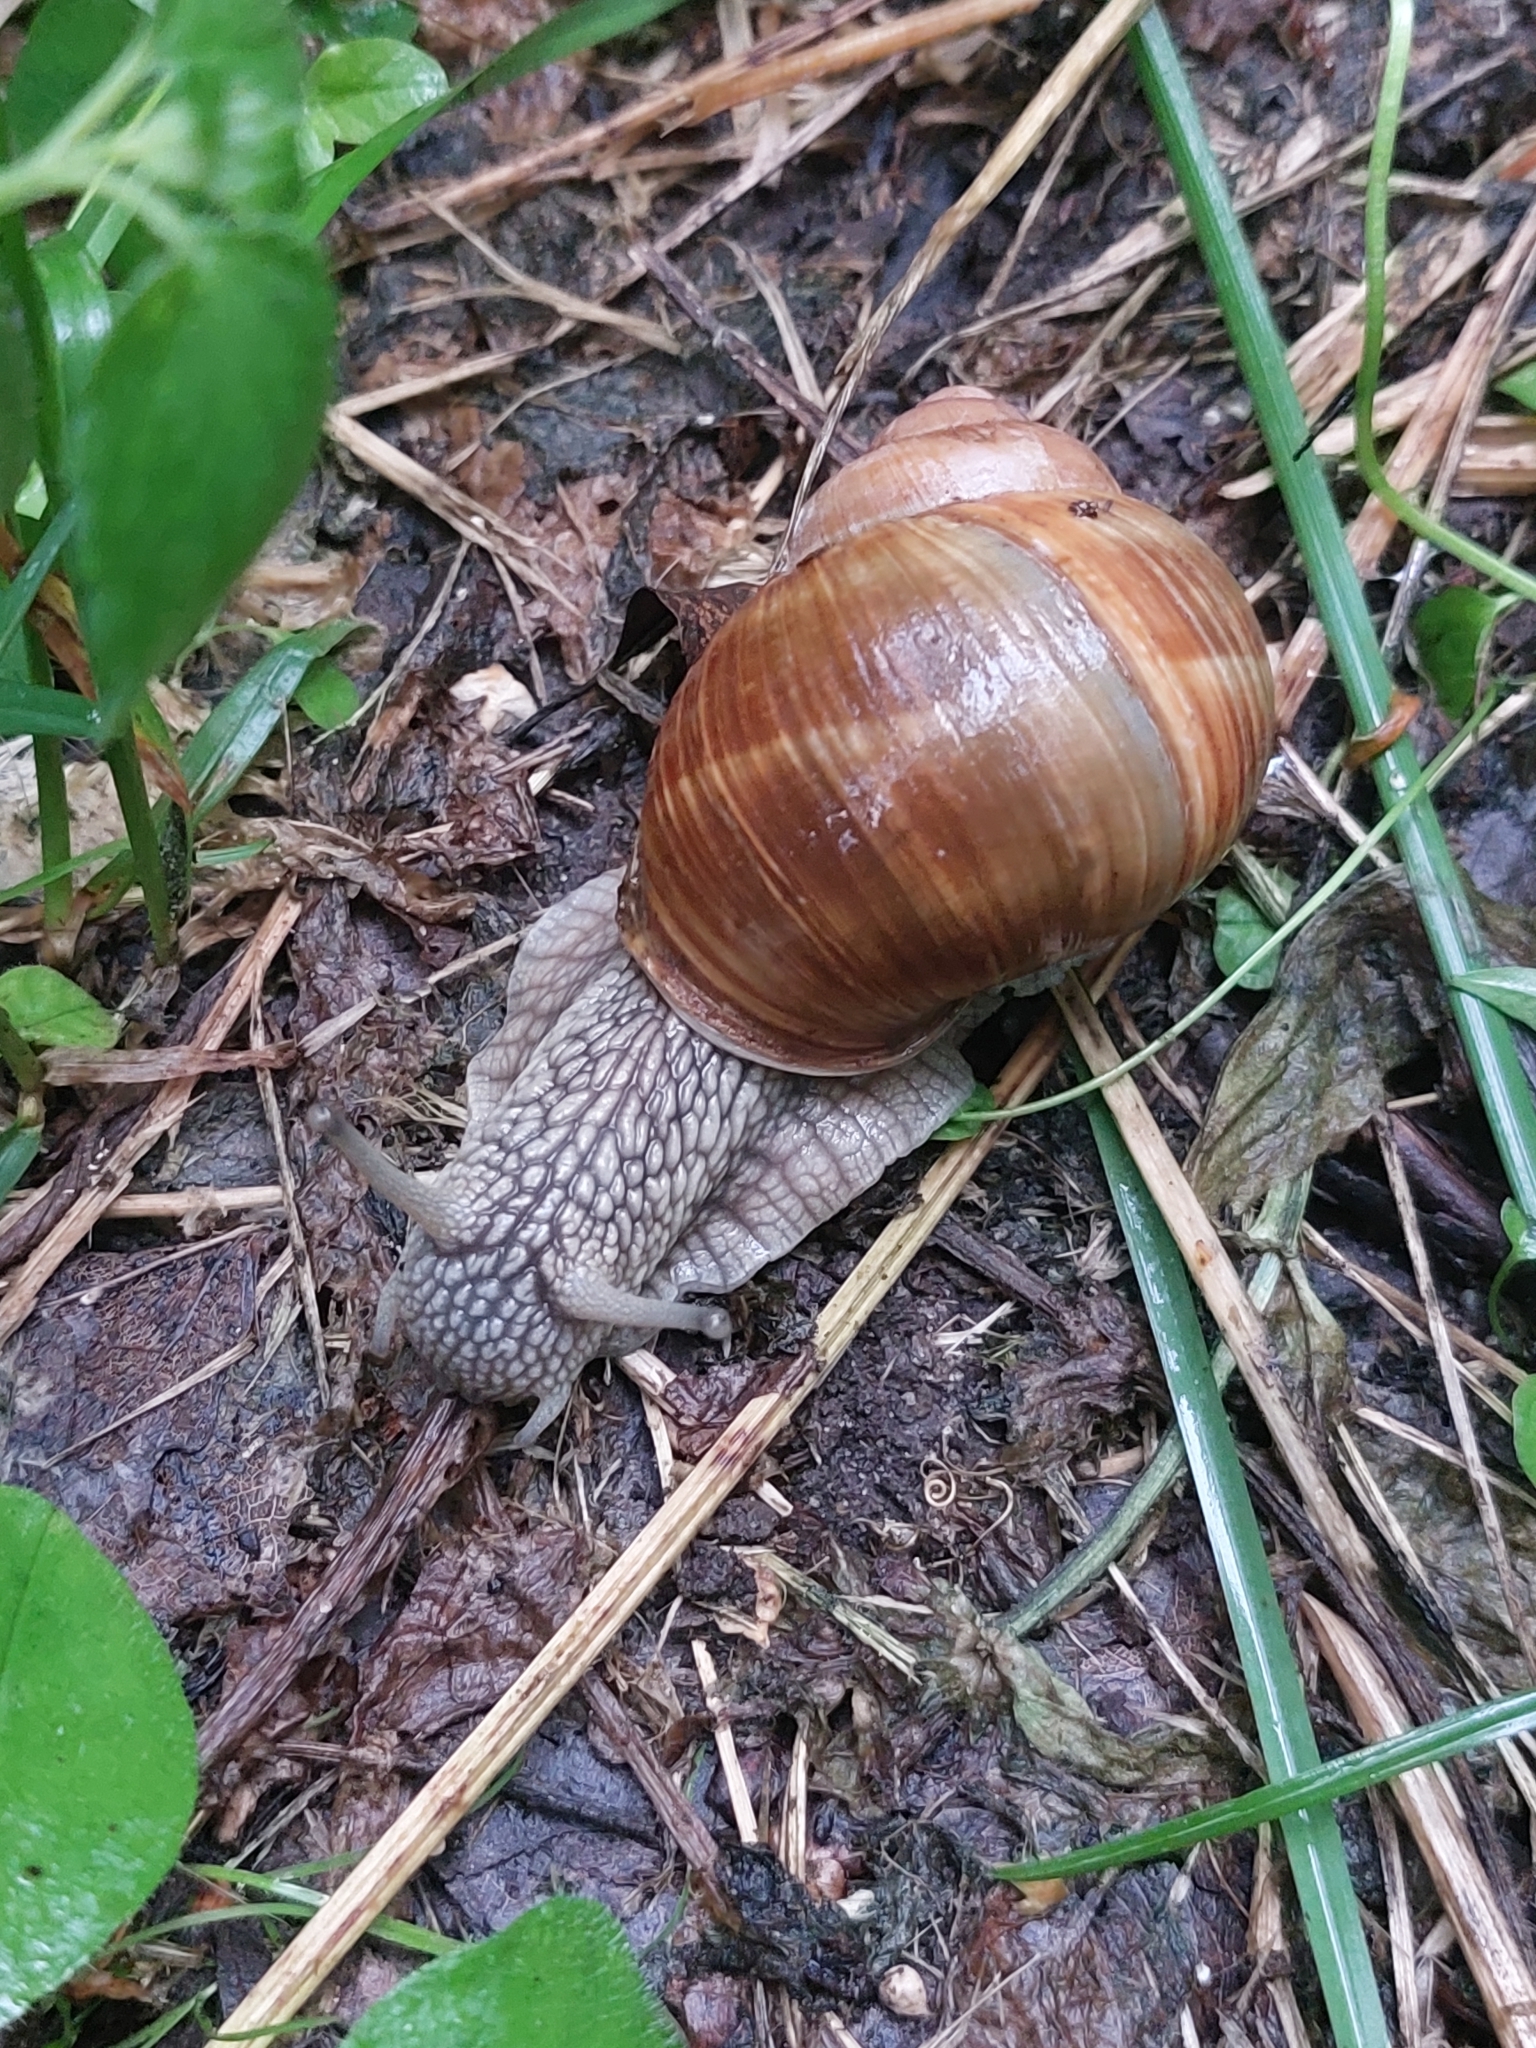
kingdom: Animalia
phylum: Mollusca
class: Gastropoda
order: Stylommatophora
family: Helicidae
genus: Helix
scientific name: Helix pomatia
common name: Roman snail
